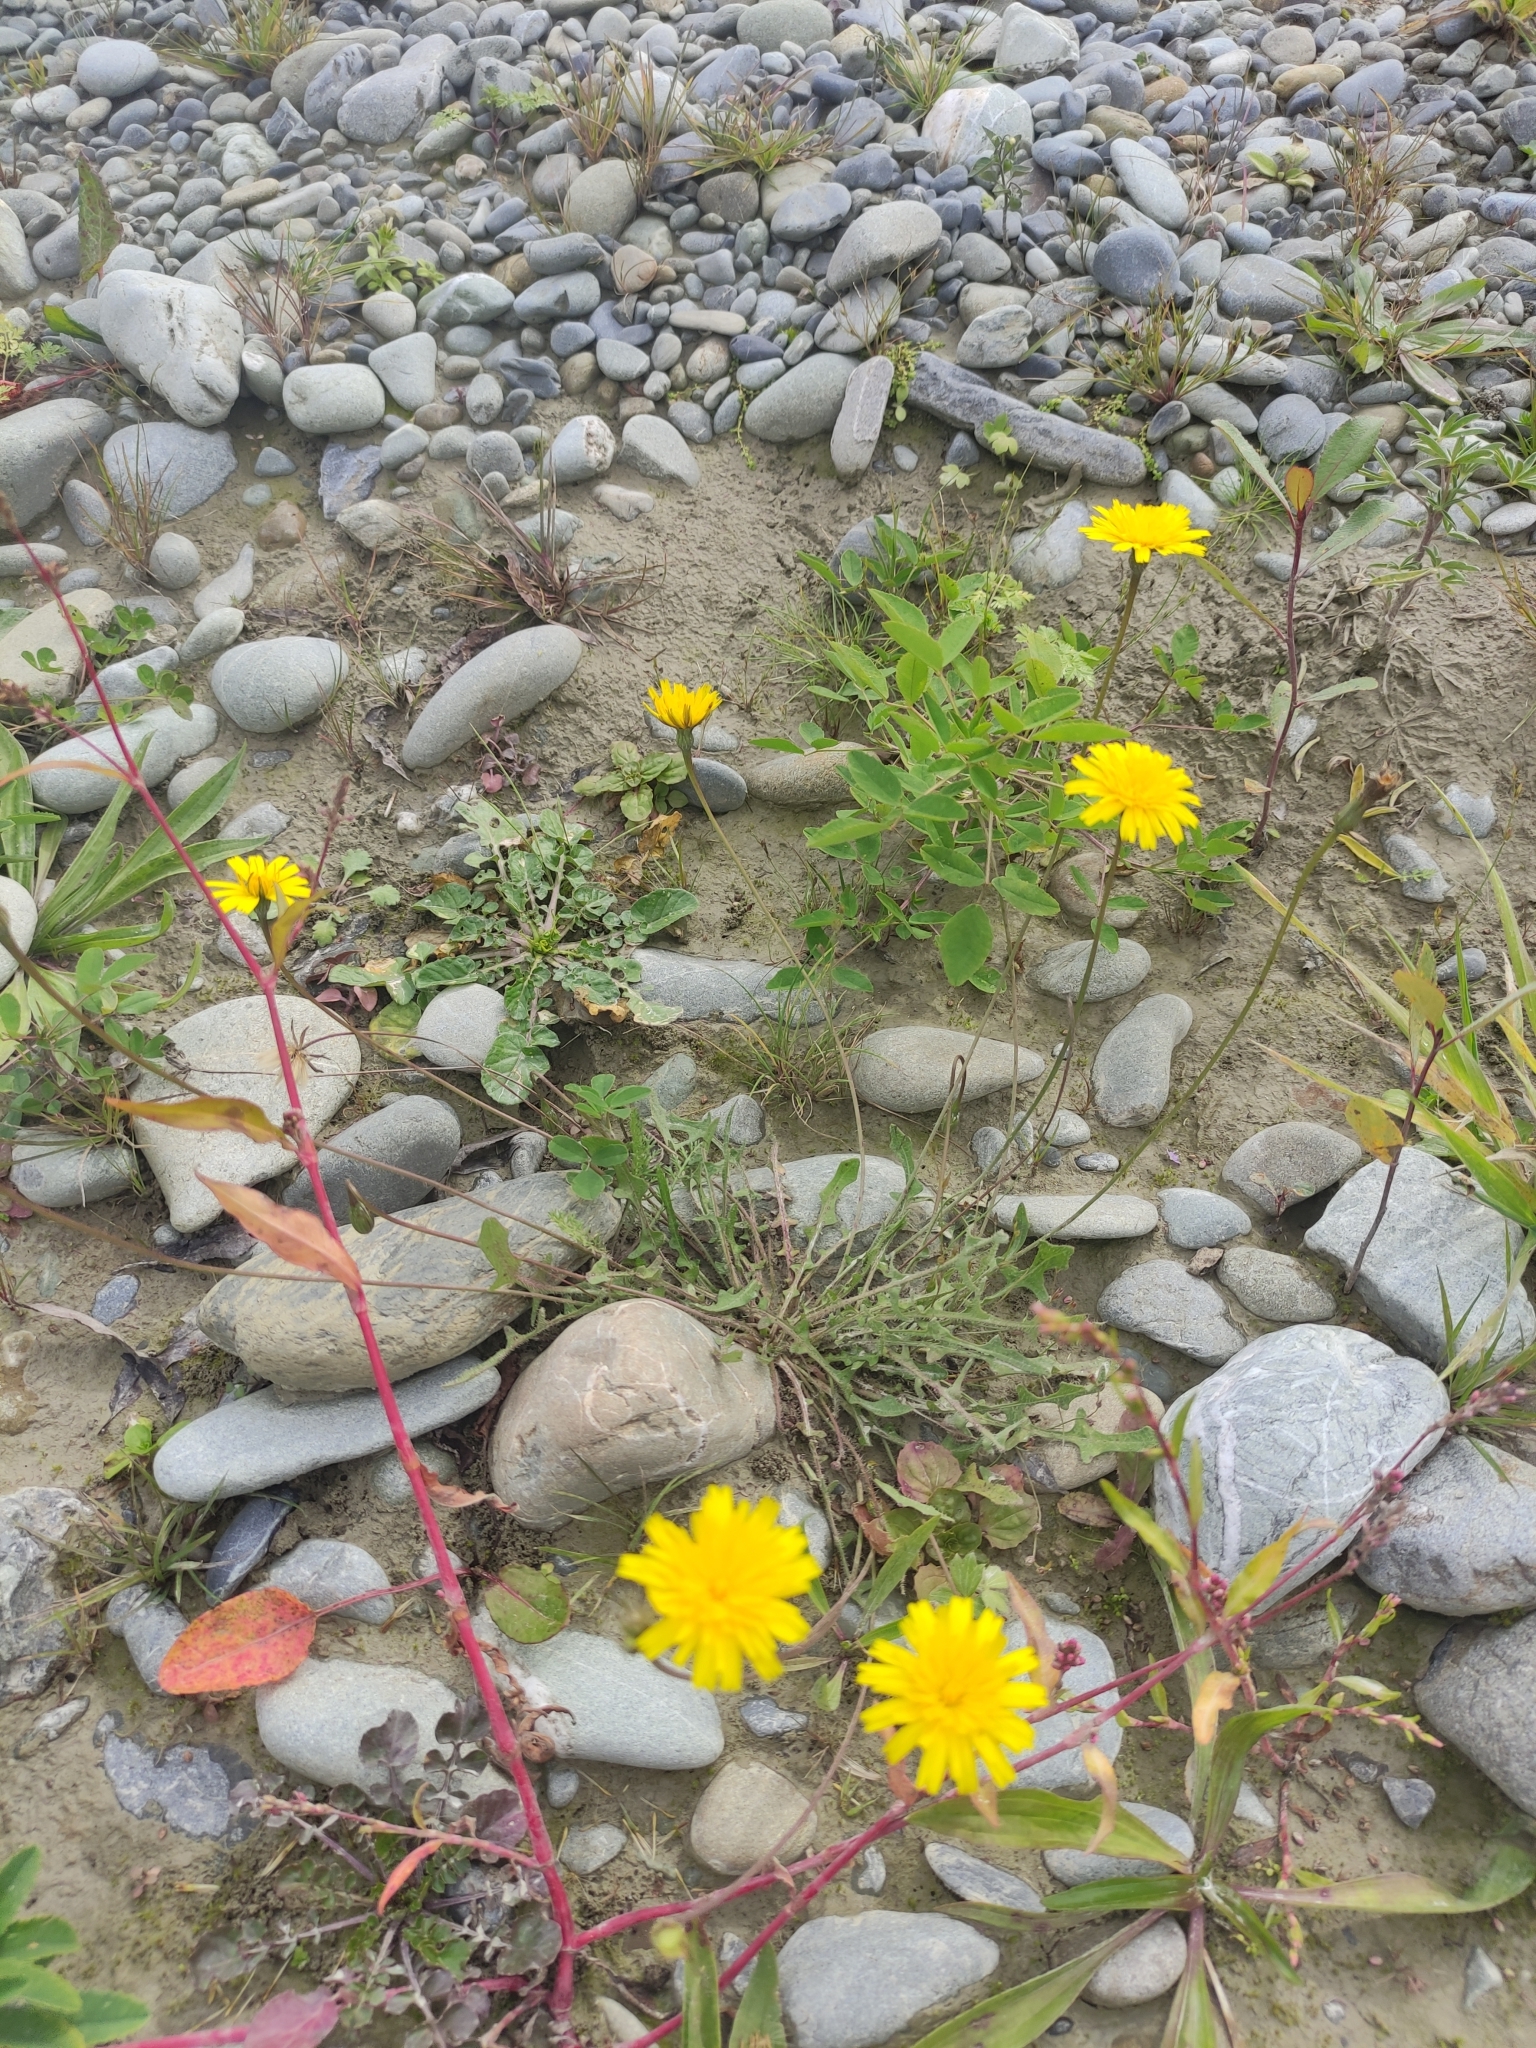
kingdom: Plantae
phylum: Tracheophyta
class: Magnoliopsida
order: Asterales
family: Asteraceae
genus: Crepis
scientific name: Crepis capillaris
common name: Smooth hawksbeard
